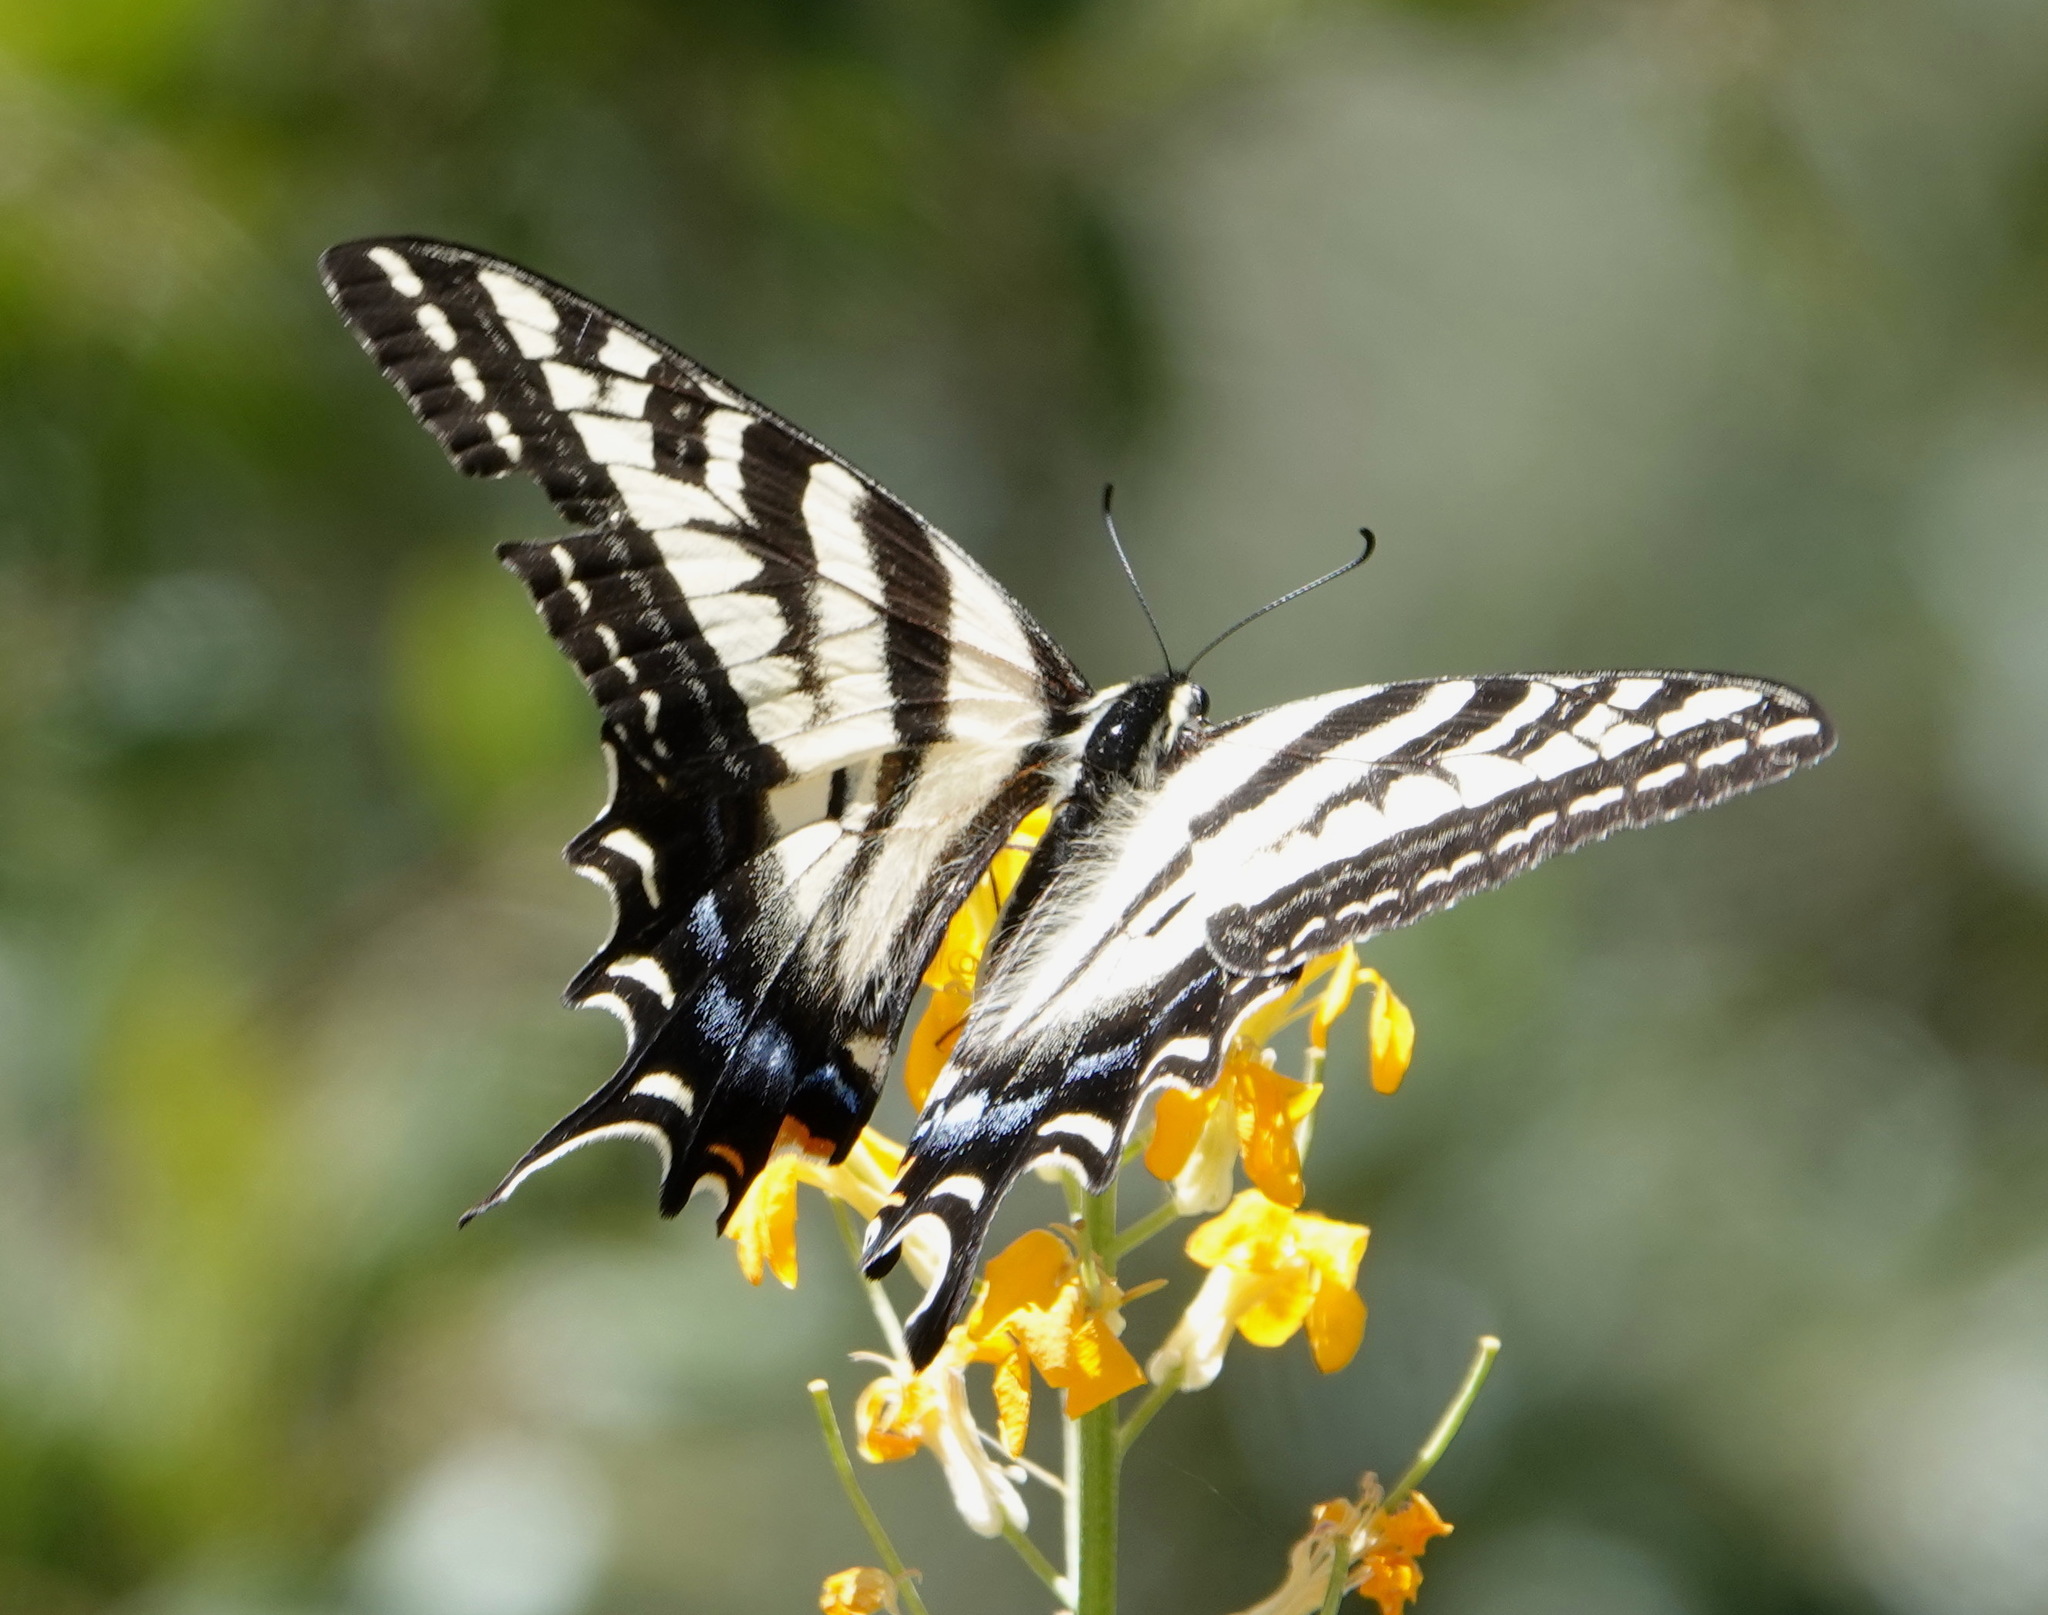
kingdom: Animalia
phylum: Arthropoda
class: Insecta
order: Lepidoptera
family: Papilionidae
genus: Papilio
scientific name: Papilio eurymedon
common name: Pale tiger swallowtail
